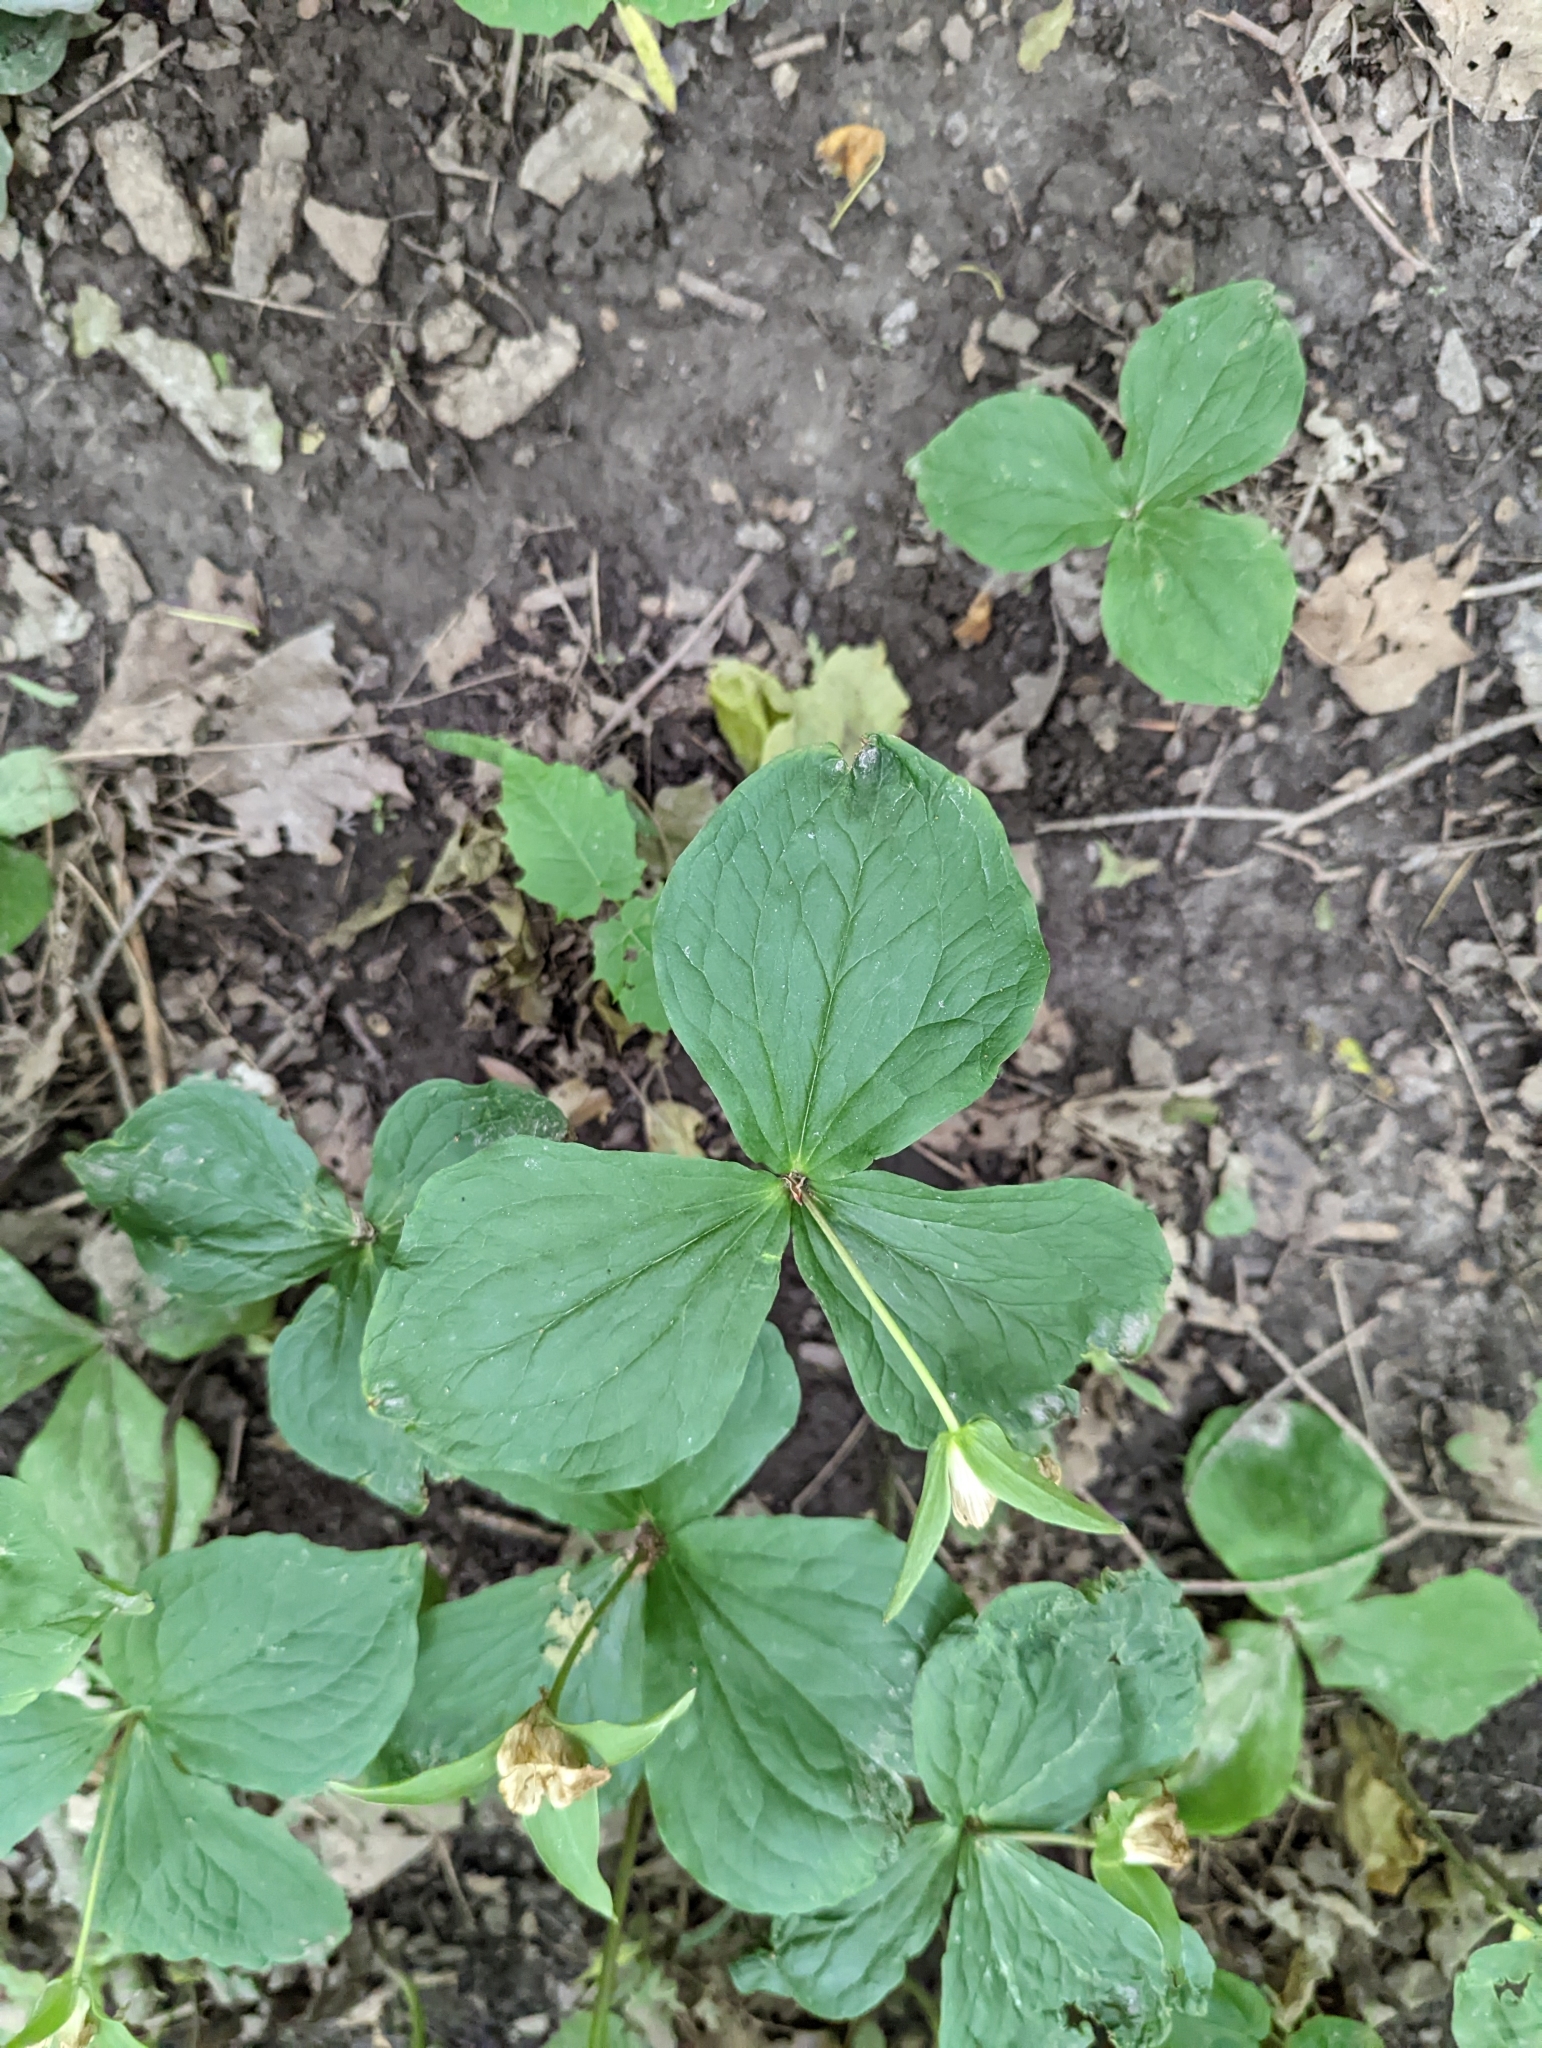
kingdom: Plantae
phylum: Tracheophyta
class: Liliopsida
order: Liliales
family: Melanthiaceae
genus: Trillium
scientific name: Trillium grandiflorum
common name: Great white trillium
